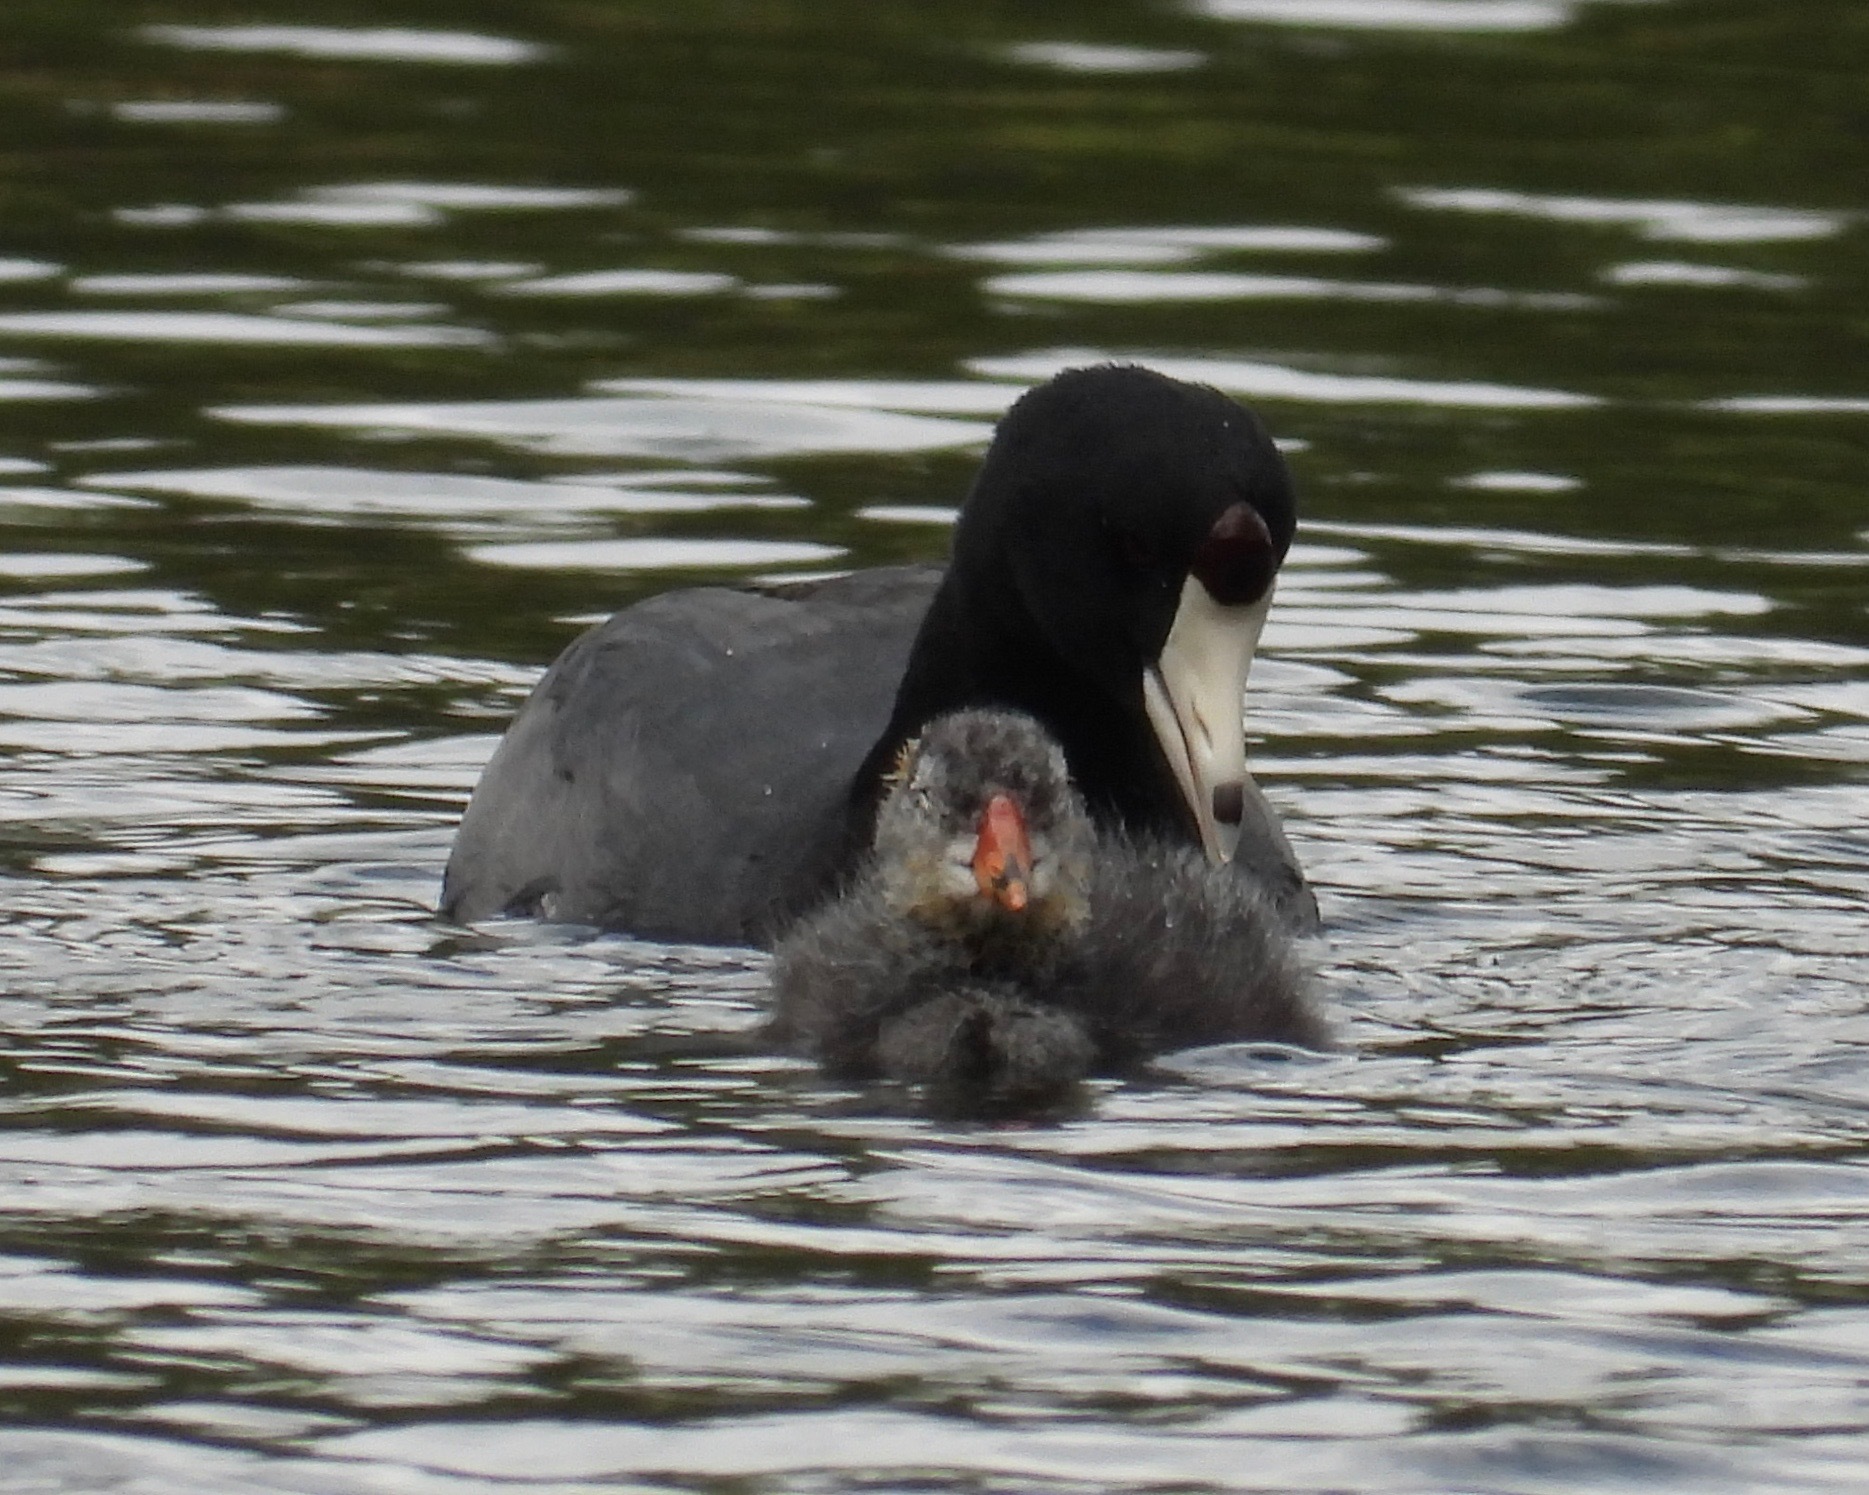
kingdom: Animalia
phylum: Chordata
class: Aves
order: Gruiformes
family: Rallidae
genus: Fulica
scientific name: Fulica americana
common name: American coot
